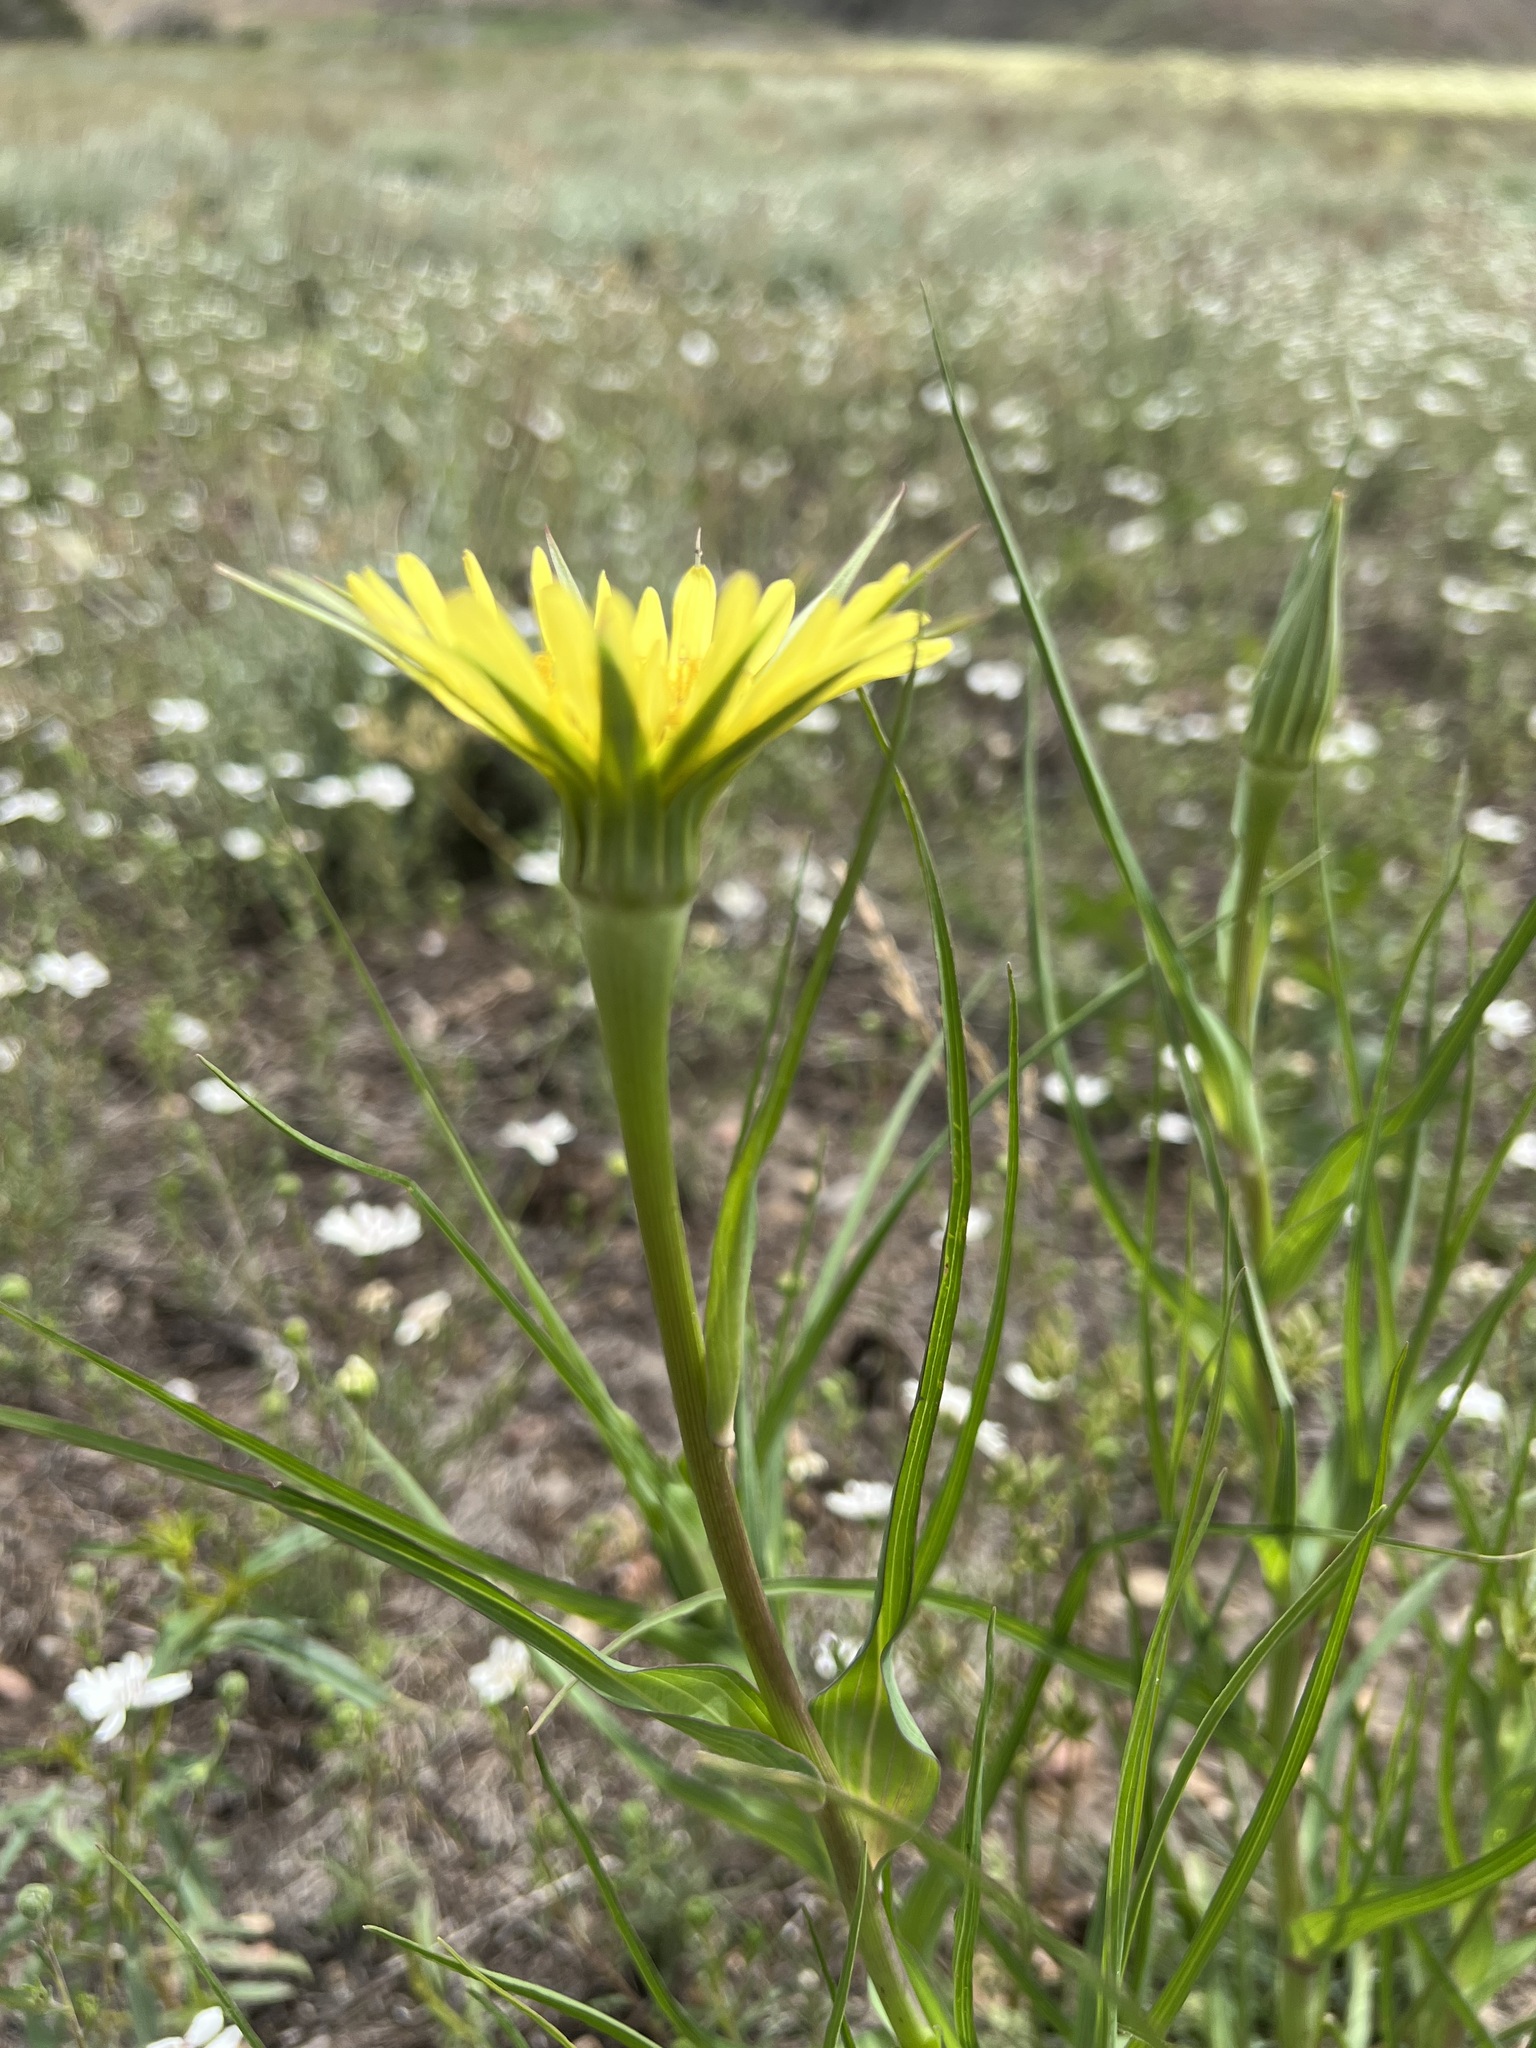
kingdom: Plantae
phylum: Tracheophyta
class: Magnoliopsida
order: Asterales
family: Asteraceae
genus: Tragopogon
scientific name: Tragopogon dubius
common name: Yellow salsify
